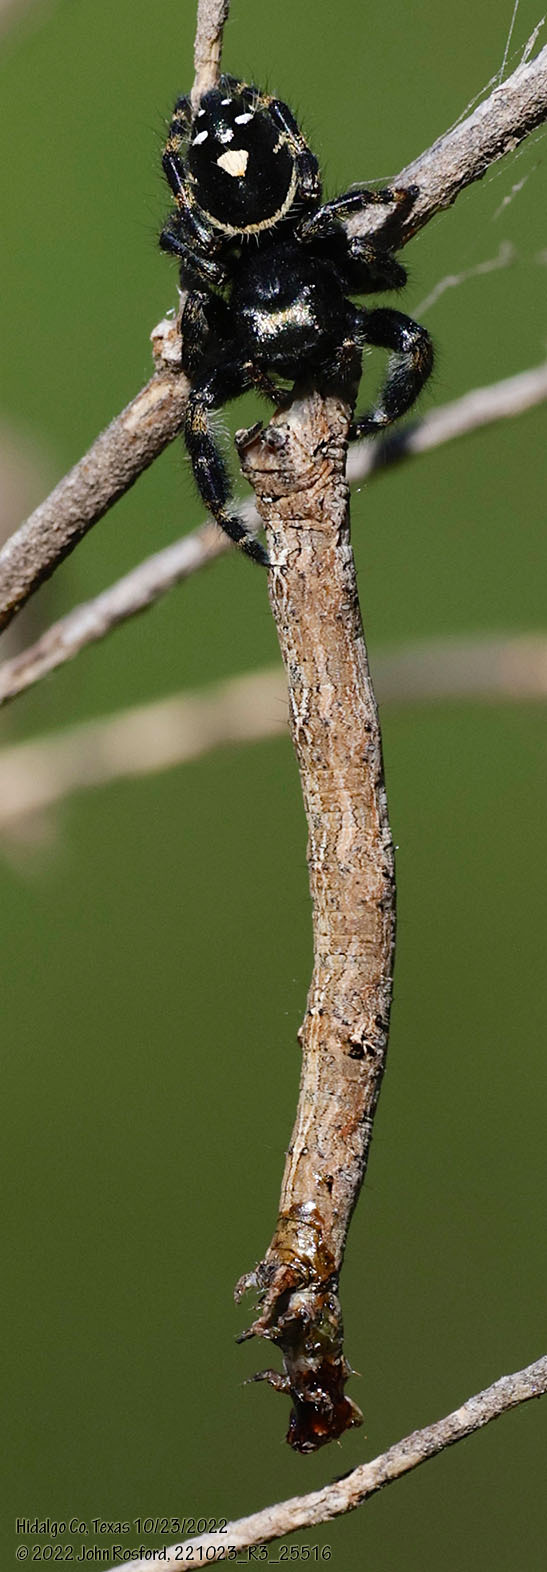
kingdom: Animalia
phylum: Arthropoda
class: Arachnida
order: Araneae
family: Salticidae
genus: Phidippus
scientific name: Phidippus audax
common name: Bold jumper
